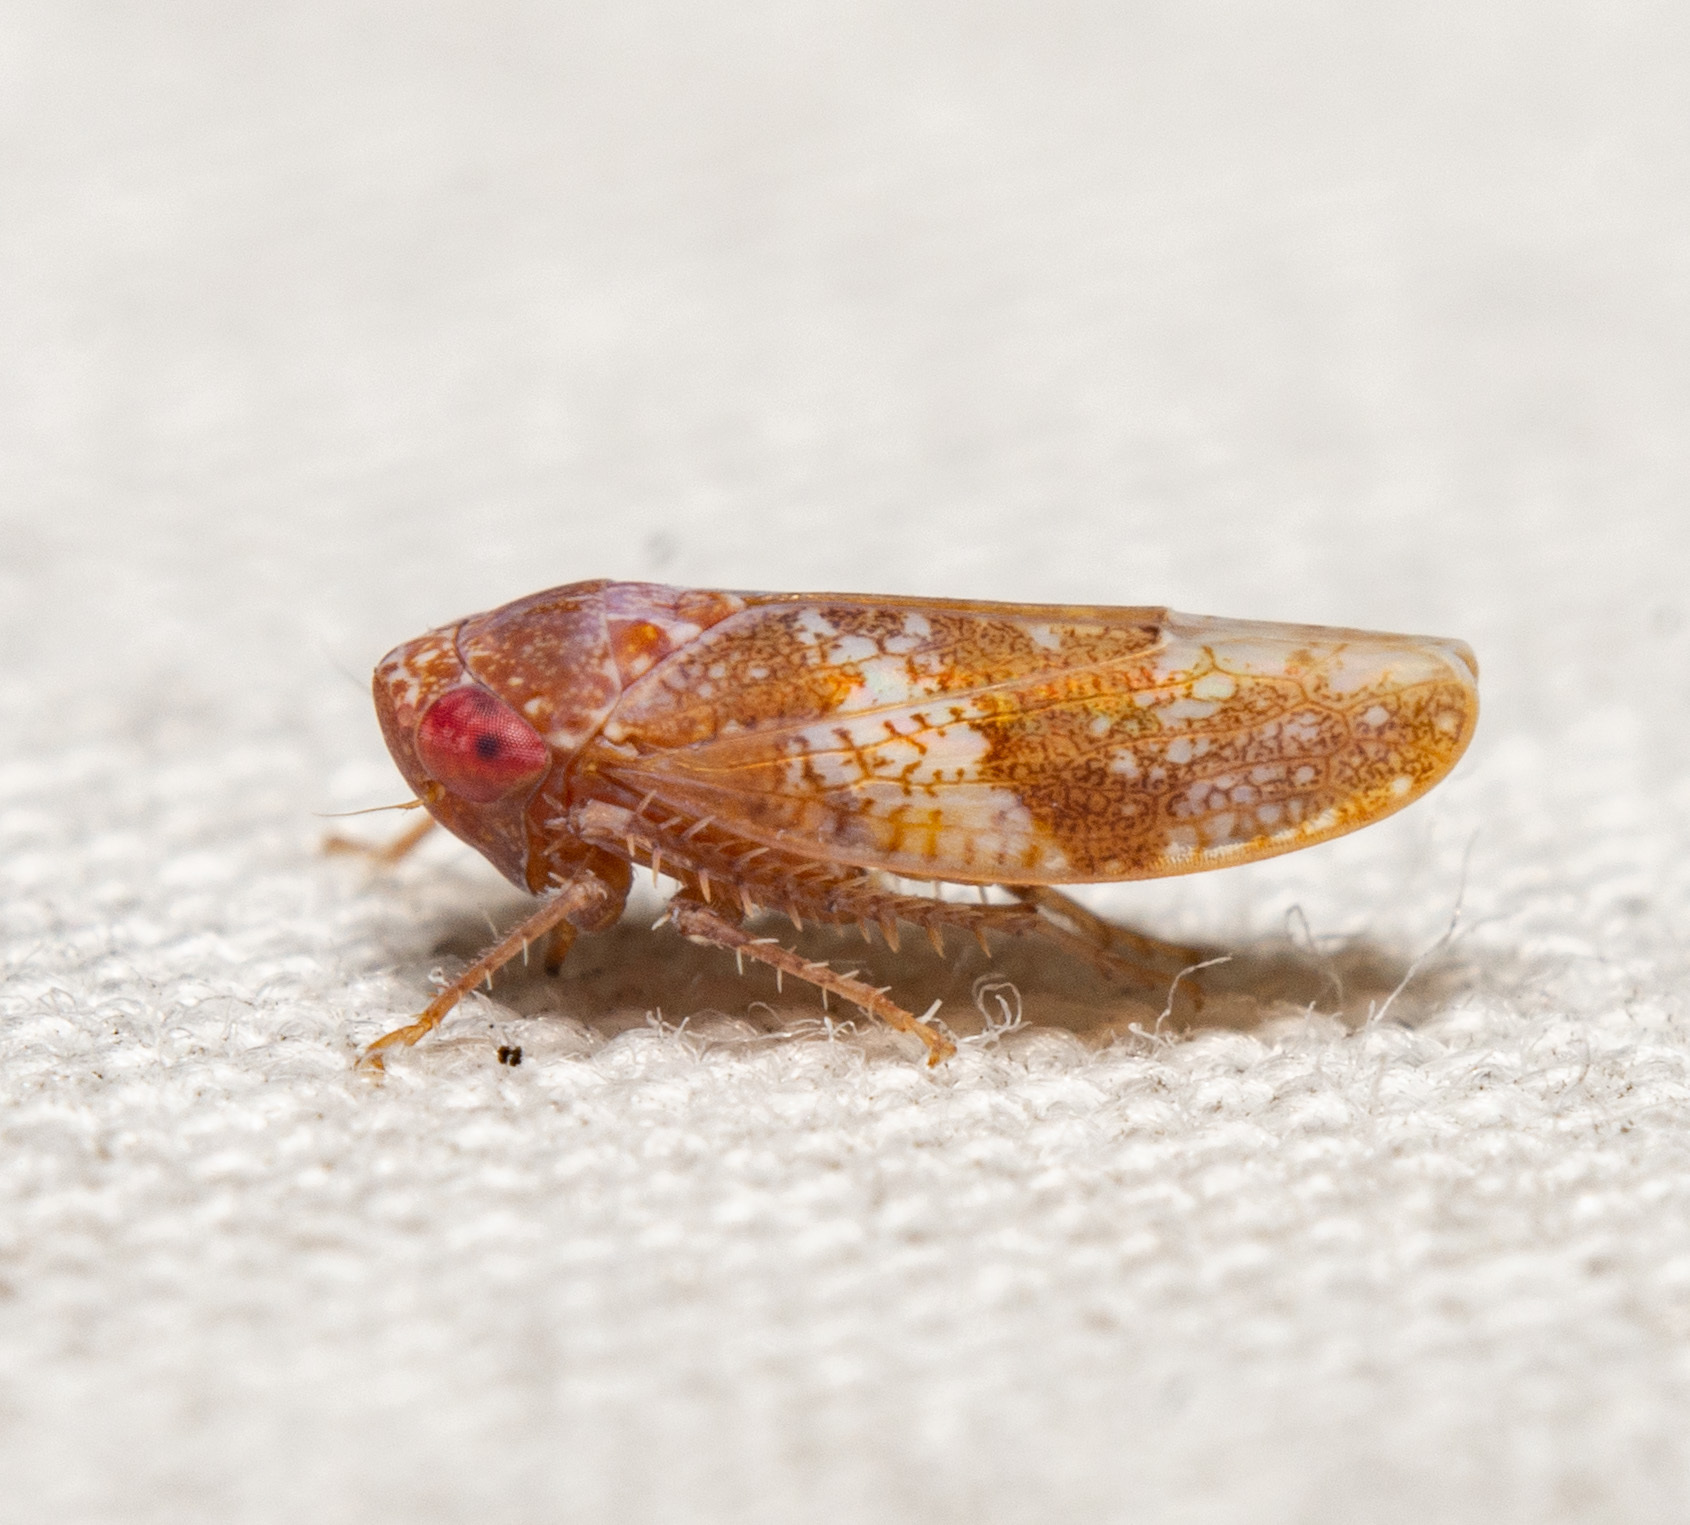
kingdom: Animalia
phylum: Arthropoda
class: Insecta
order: Hemiptera
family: Cicadellidae
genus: Norvellina
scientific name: Norvellina helenae
